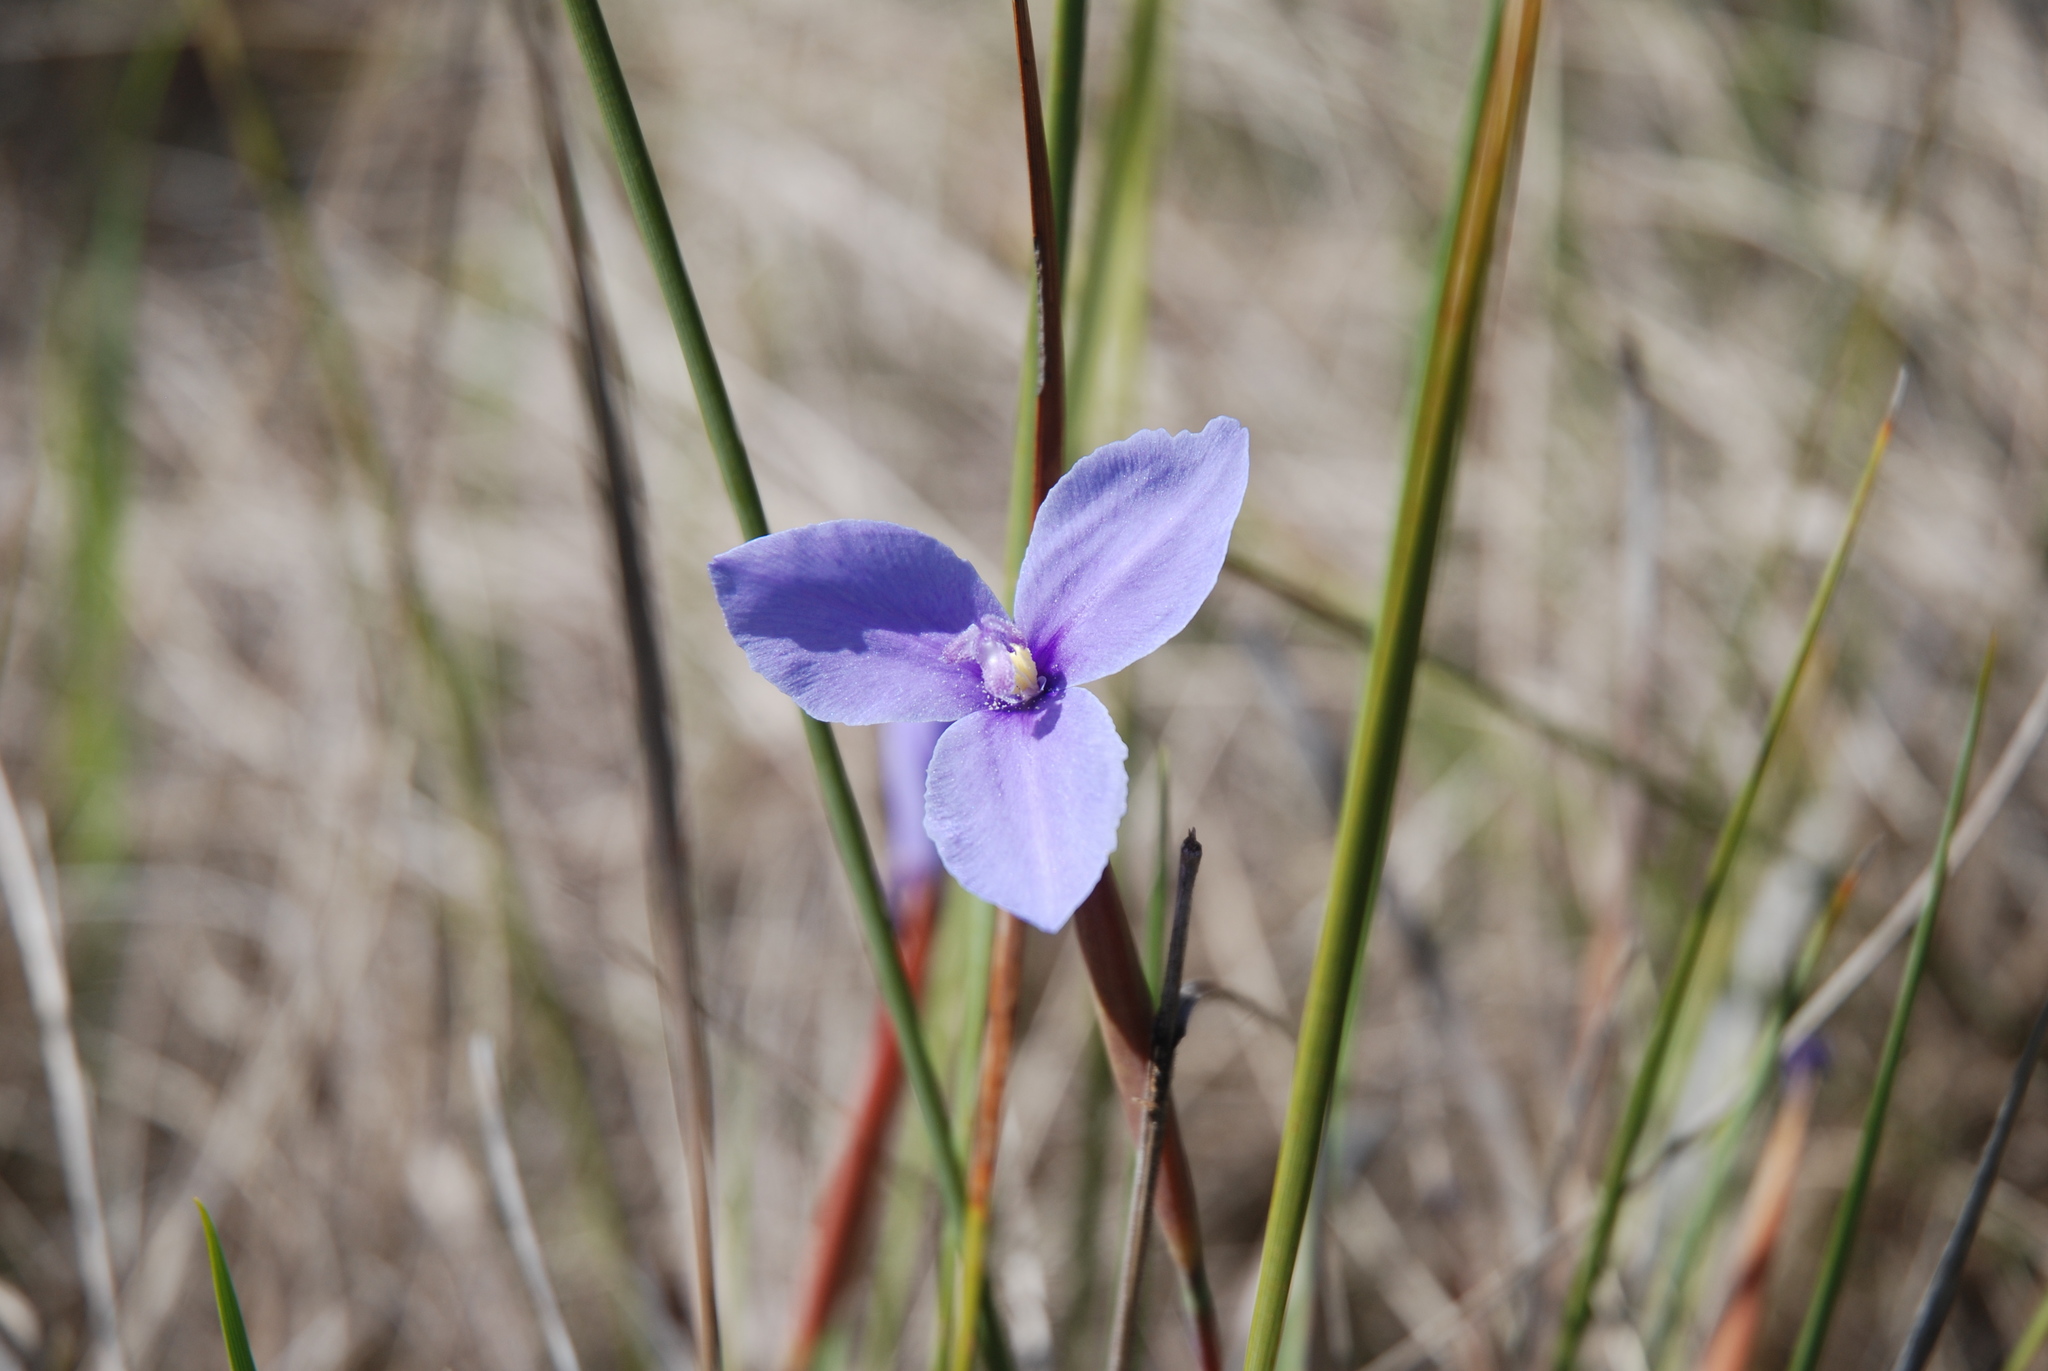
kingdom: Plantae
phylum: Tracheophyta
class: Liliopsida
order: Asparagales
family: Iridaceae
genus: Patersonia
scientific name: Patersonia fragilis
